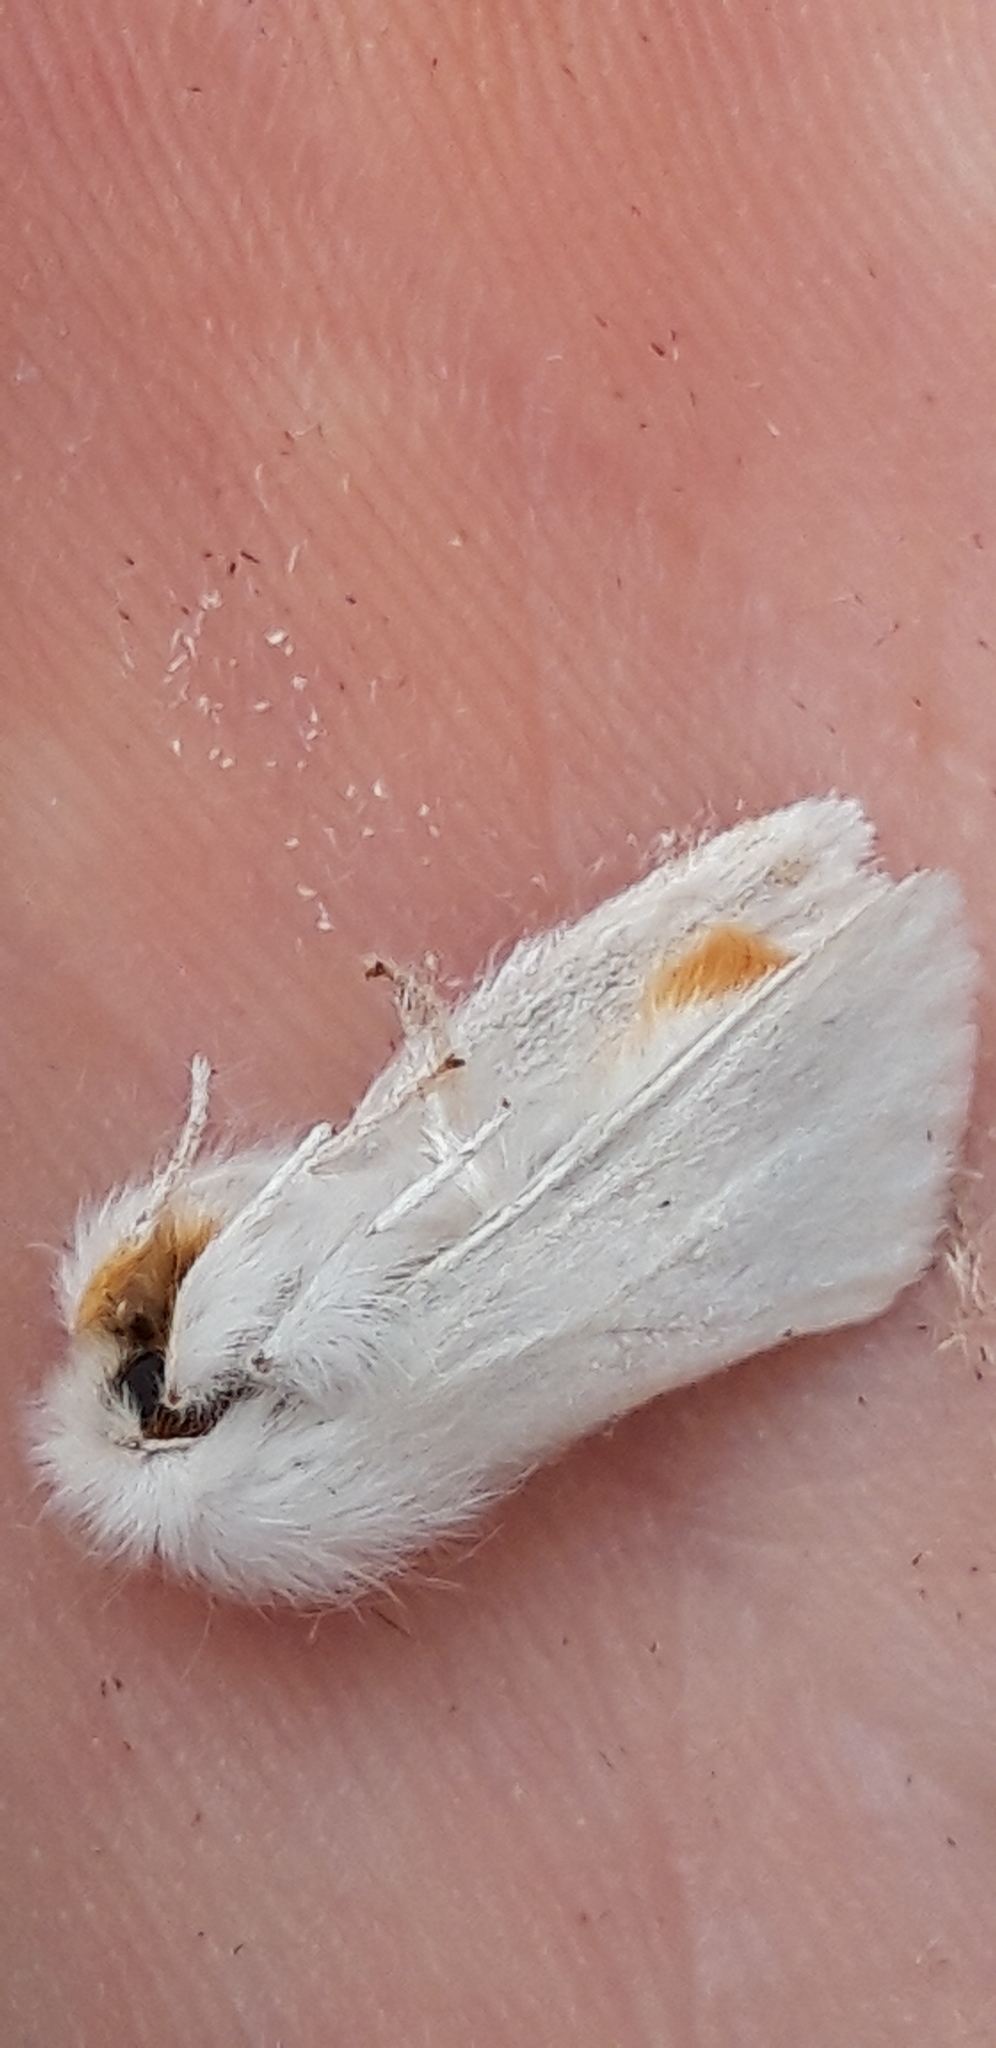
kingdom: Animalia
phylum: Arthropoda
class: Insecta
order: Lepidoptera
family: Erebidae
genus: Sphrageidus
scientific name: Sphrageidus similis
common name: Yellow-tail
